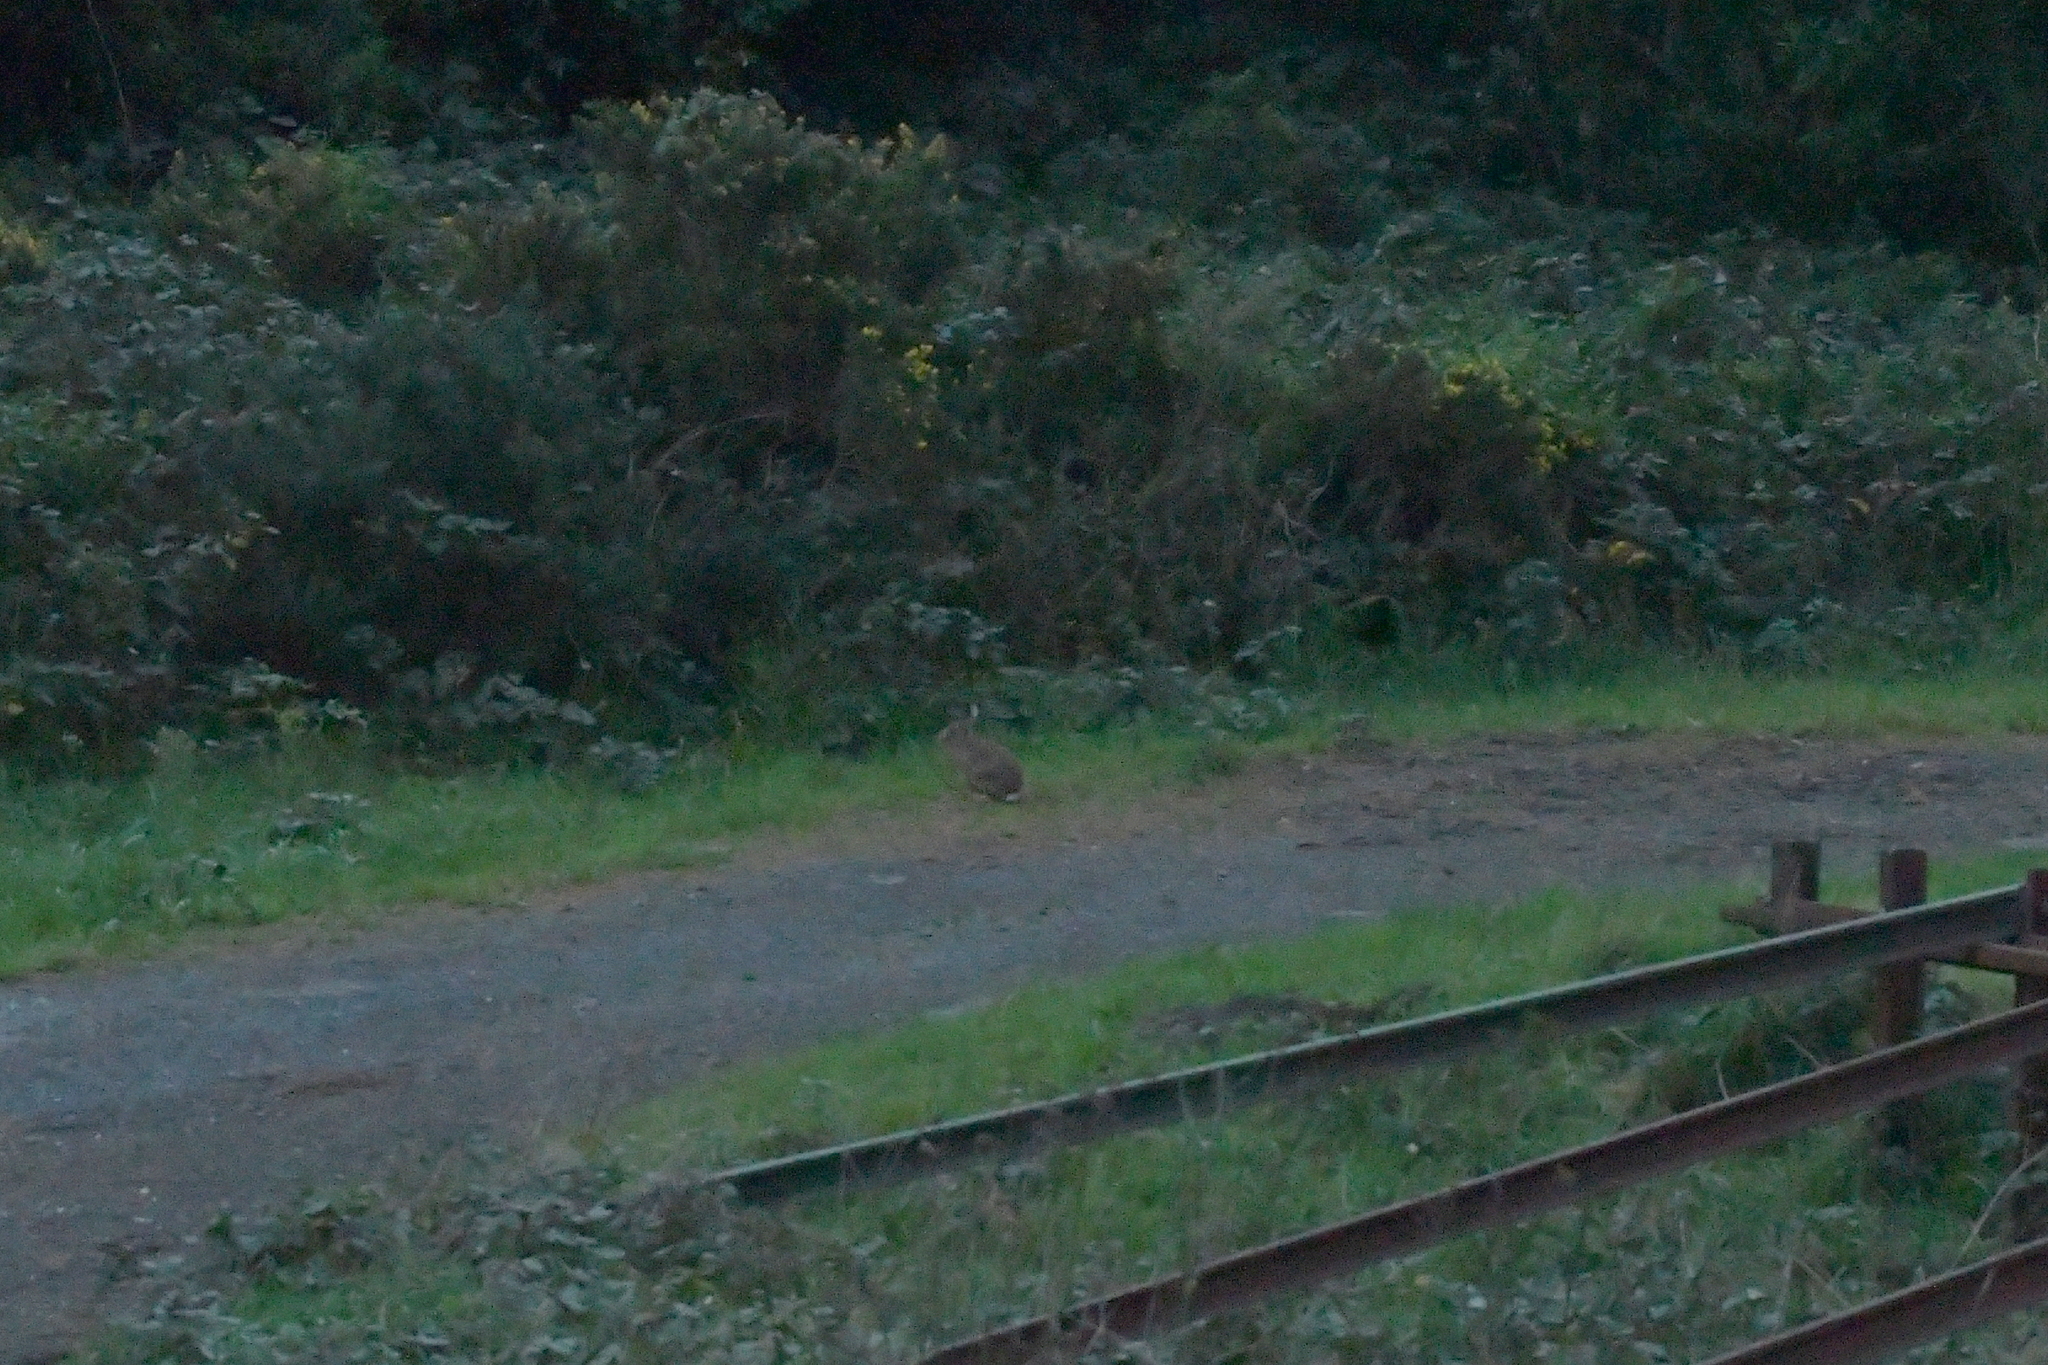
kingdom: Animalia
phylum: Chordata
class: Mammalia
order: Lagomorpha
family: Leporidae
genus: Lepus
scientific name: Lepus europaeus
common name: European hare
